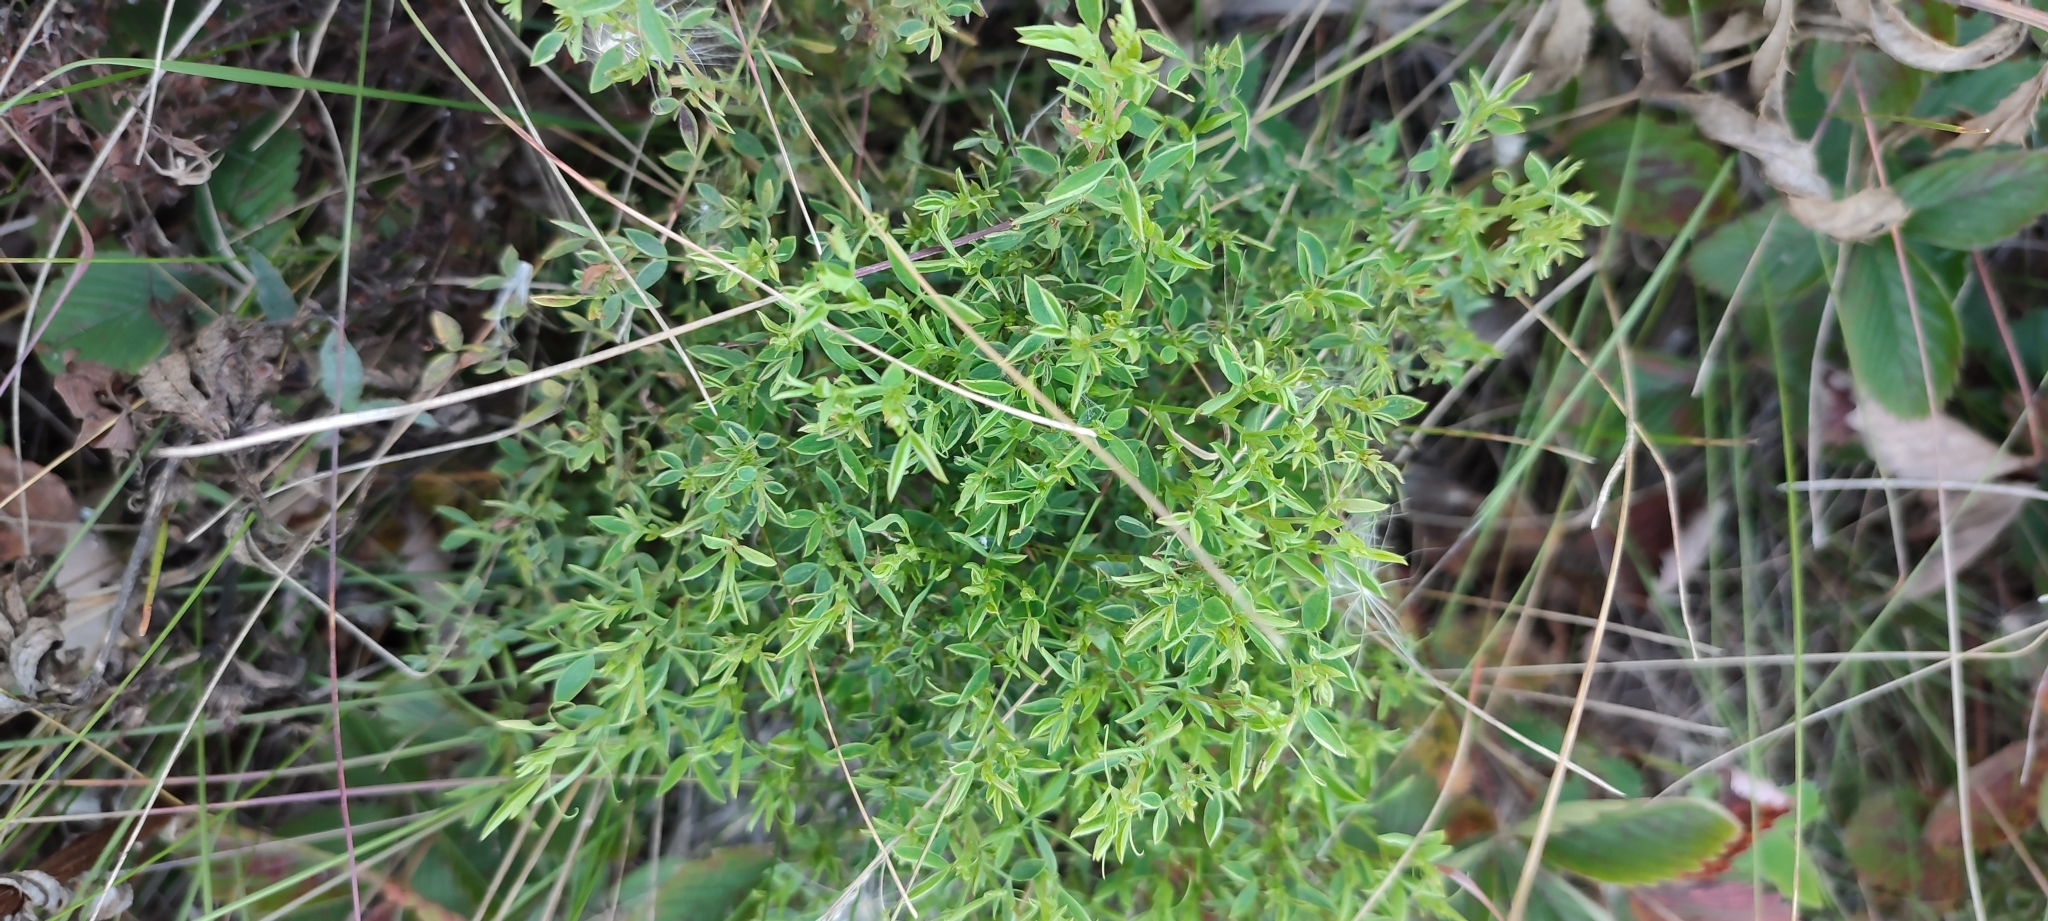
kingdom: Plantae
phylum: Tracheophyta
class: Magnoliopsida
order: Fabales
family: Fabaceae
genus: Lathyrus
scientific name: Lathyrus pratensis
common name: Meadow vetchling
